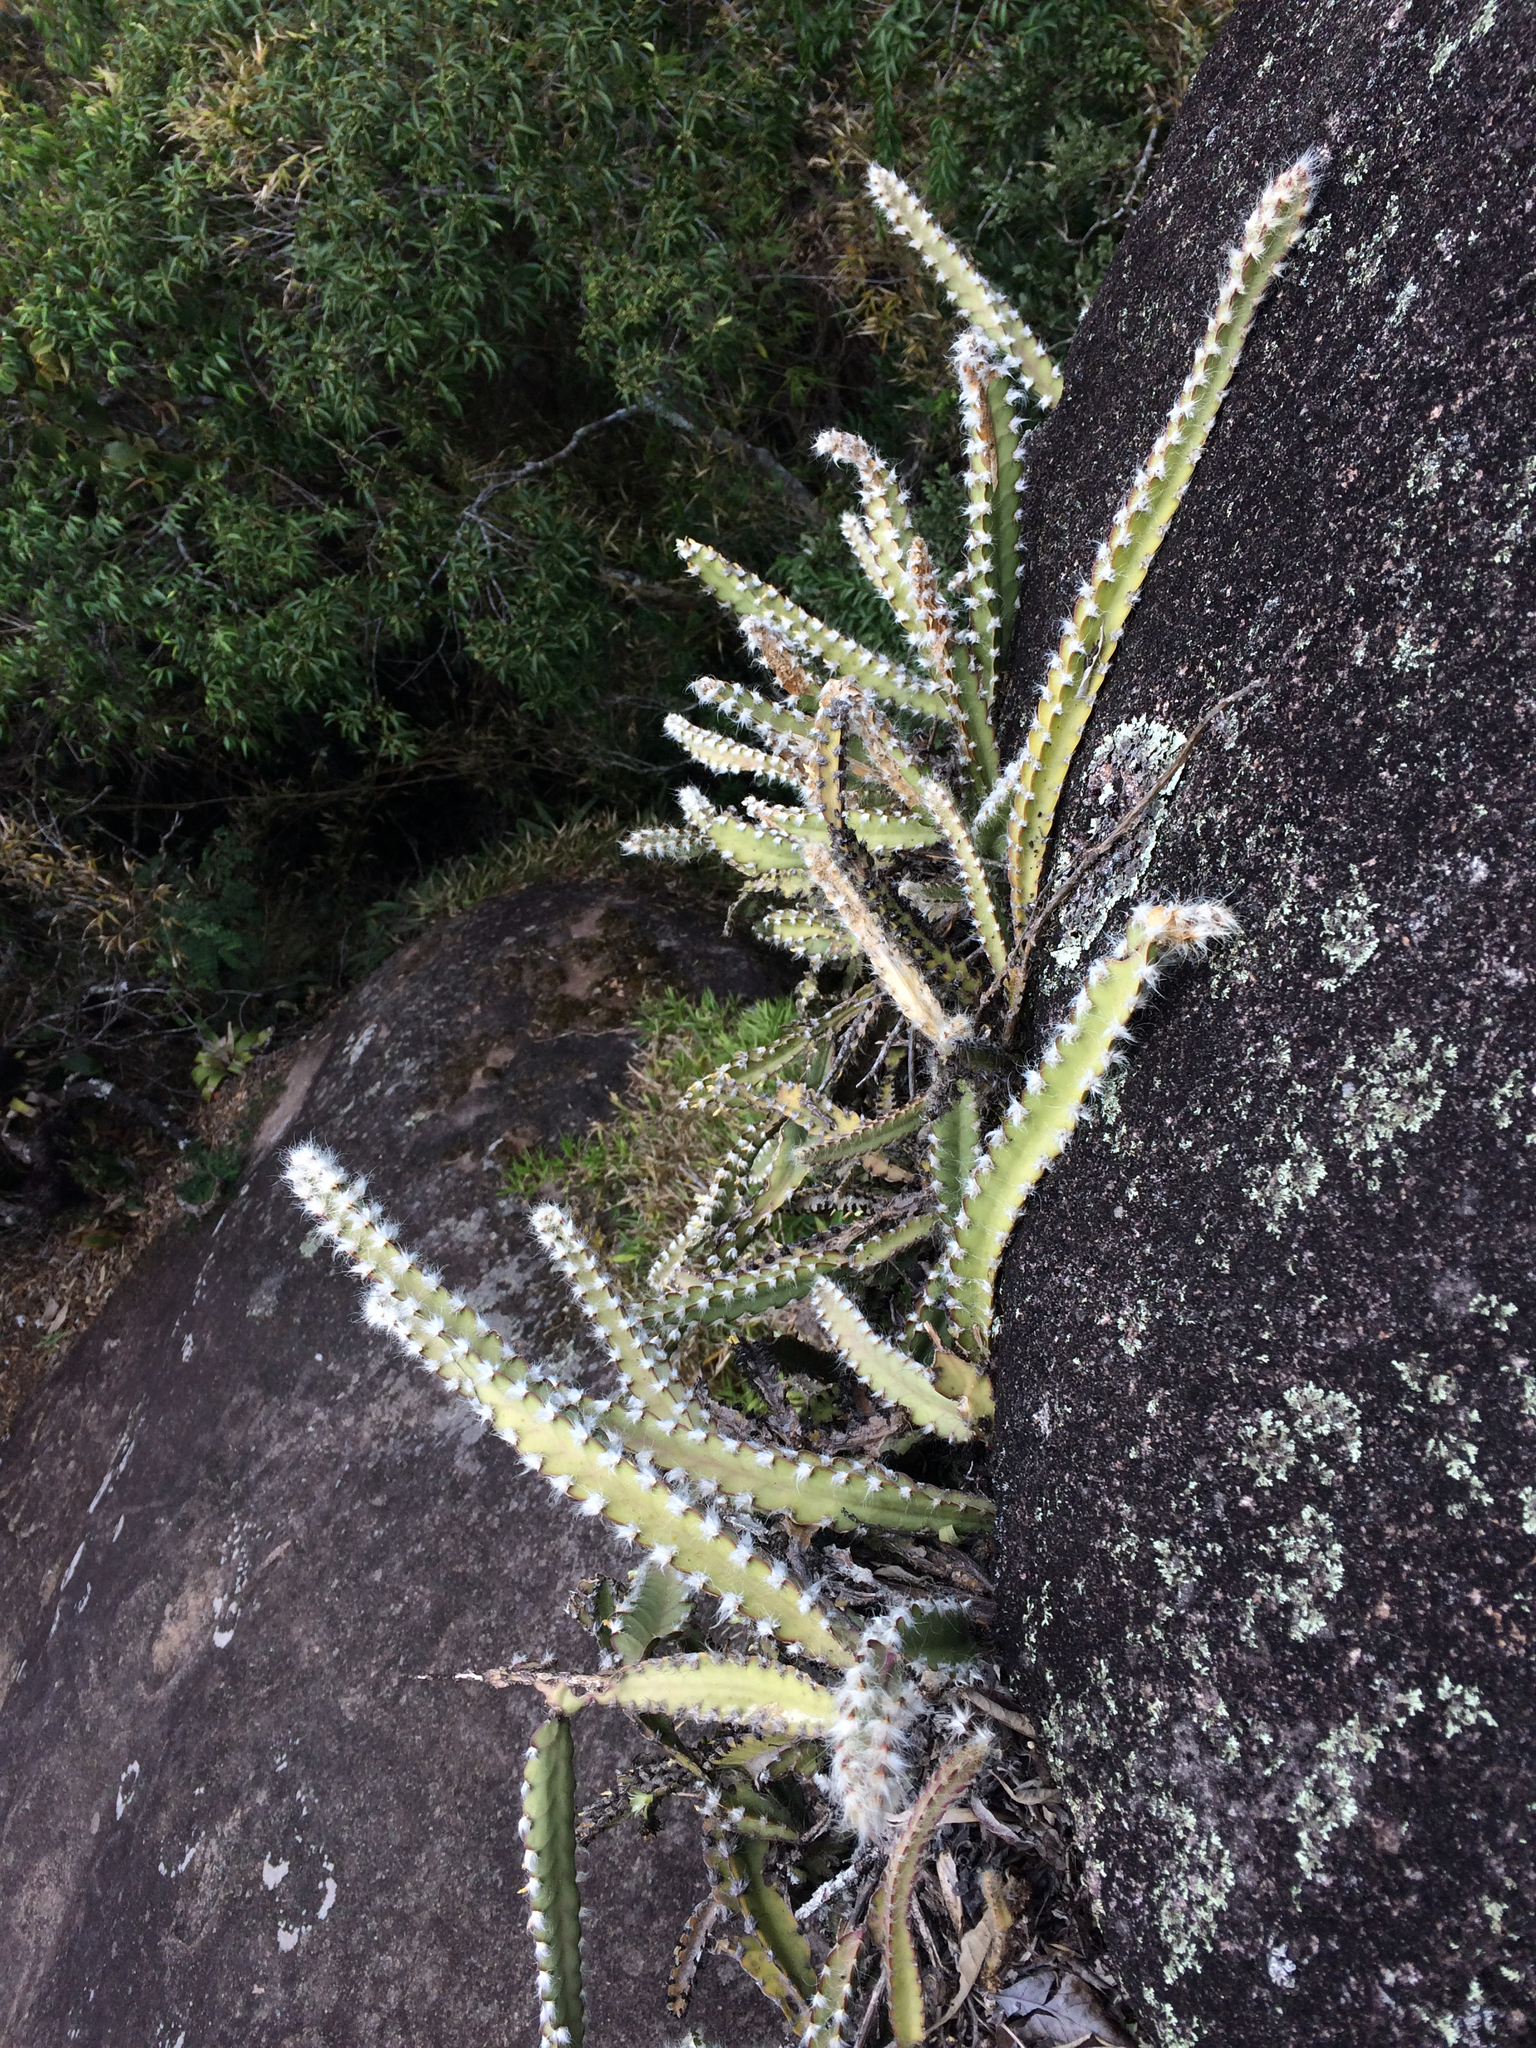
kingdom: Plantae
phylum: Tracheophyta
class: Magnoliopsida
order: Caryophyllales
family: Cactaceae
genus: Lepismium
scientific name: Lepismium cruciforme
